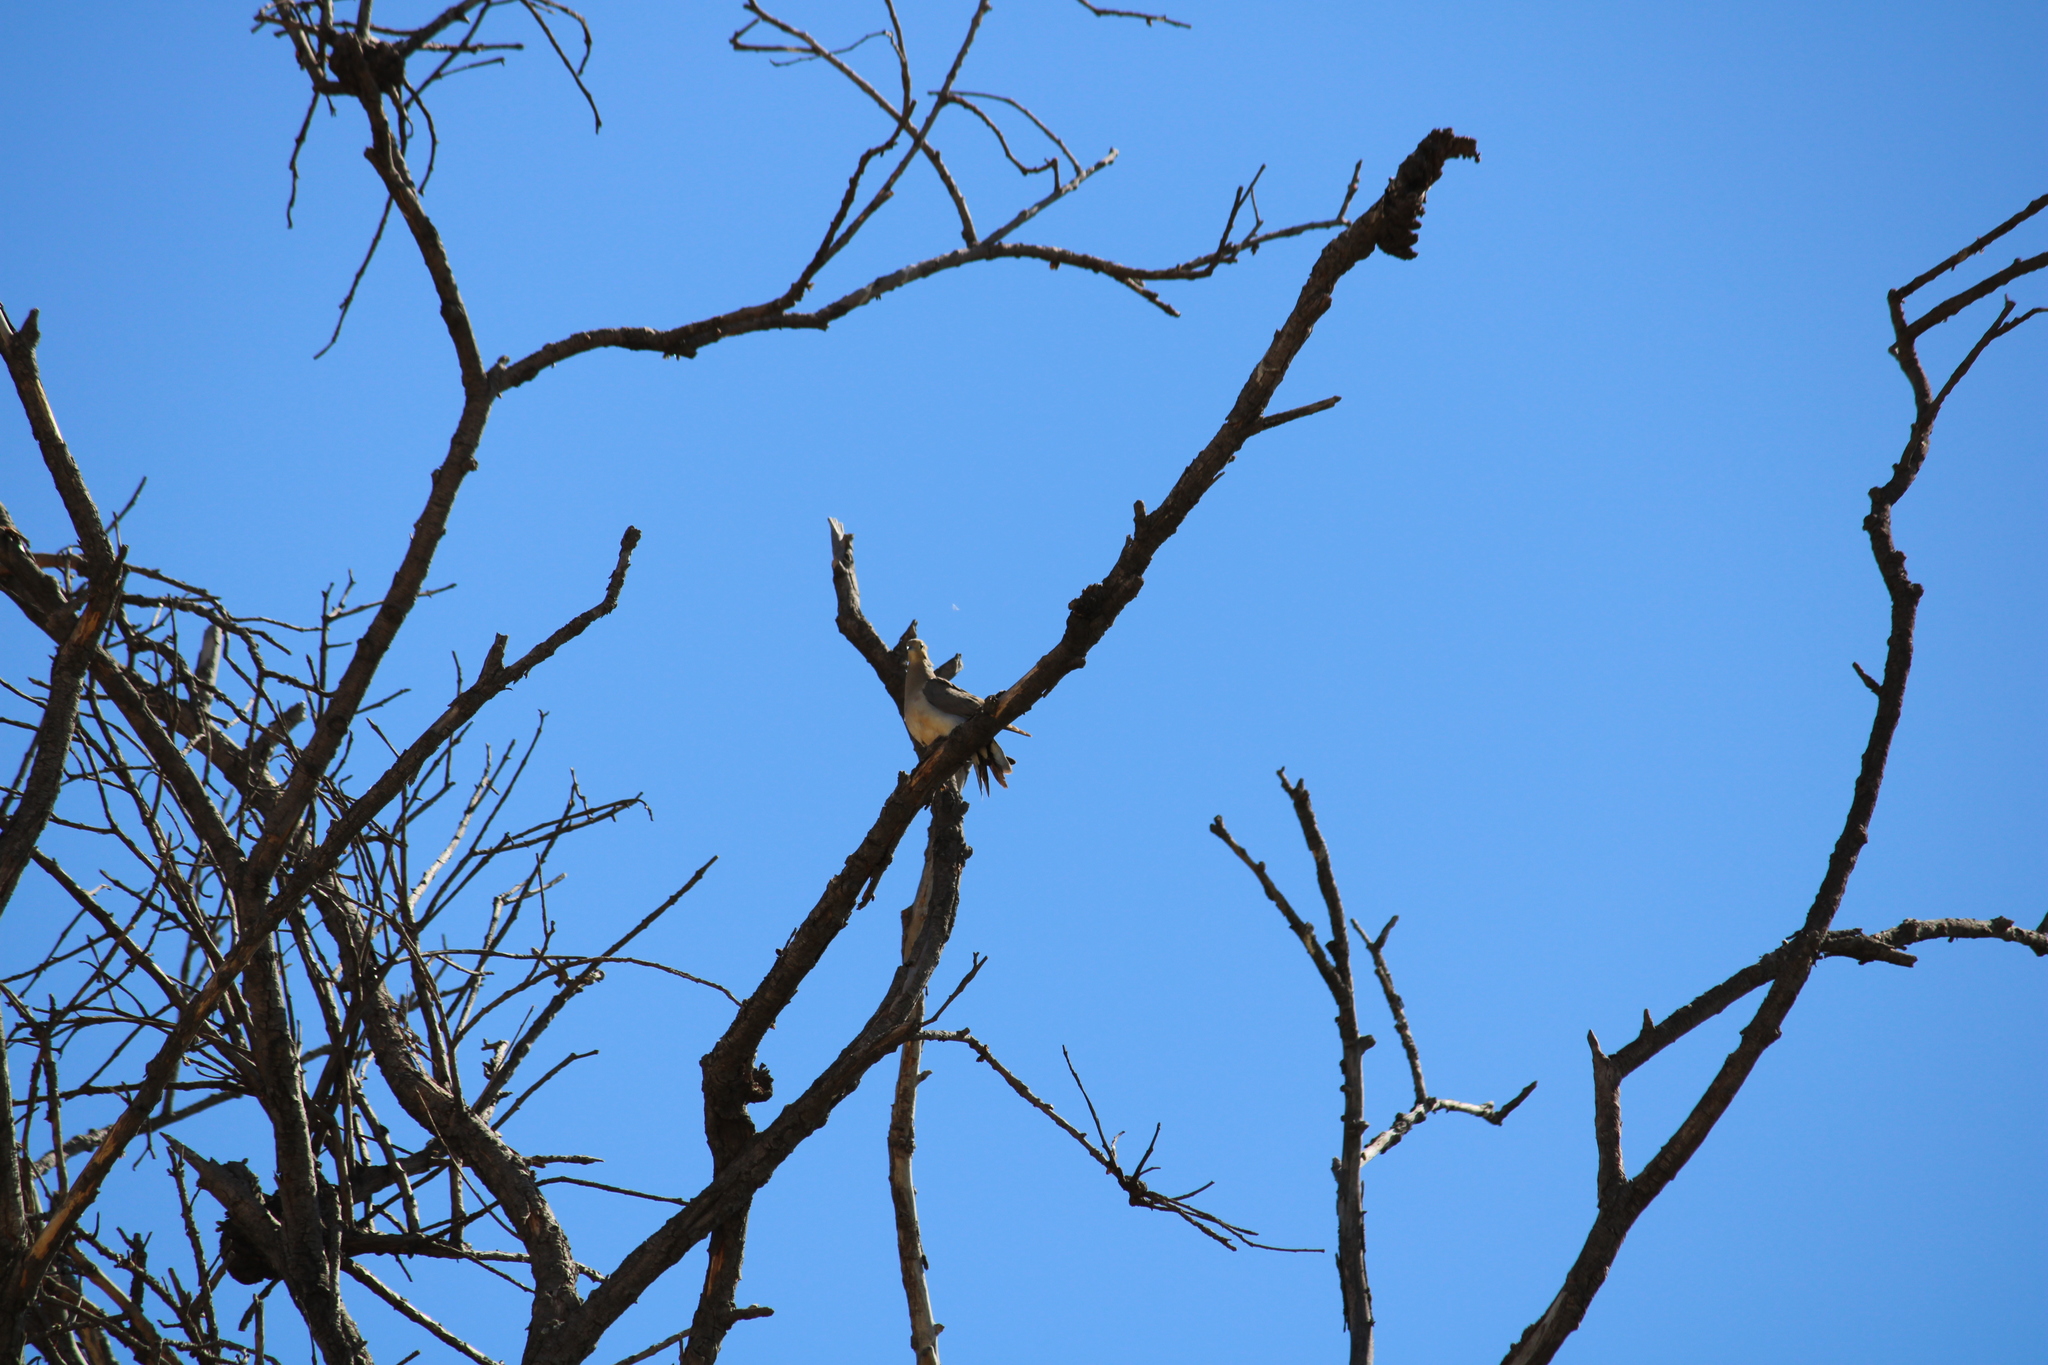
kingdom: Animalia
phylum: Chordata
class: Aves
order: Columbiformes
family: Columbidae
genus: Zenaida
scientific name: Zenaida macroura
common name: Mourning dove
